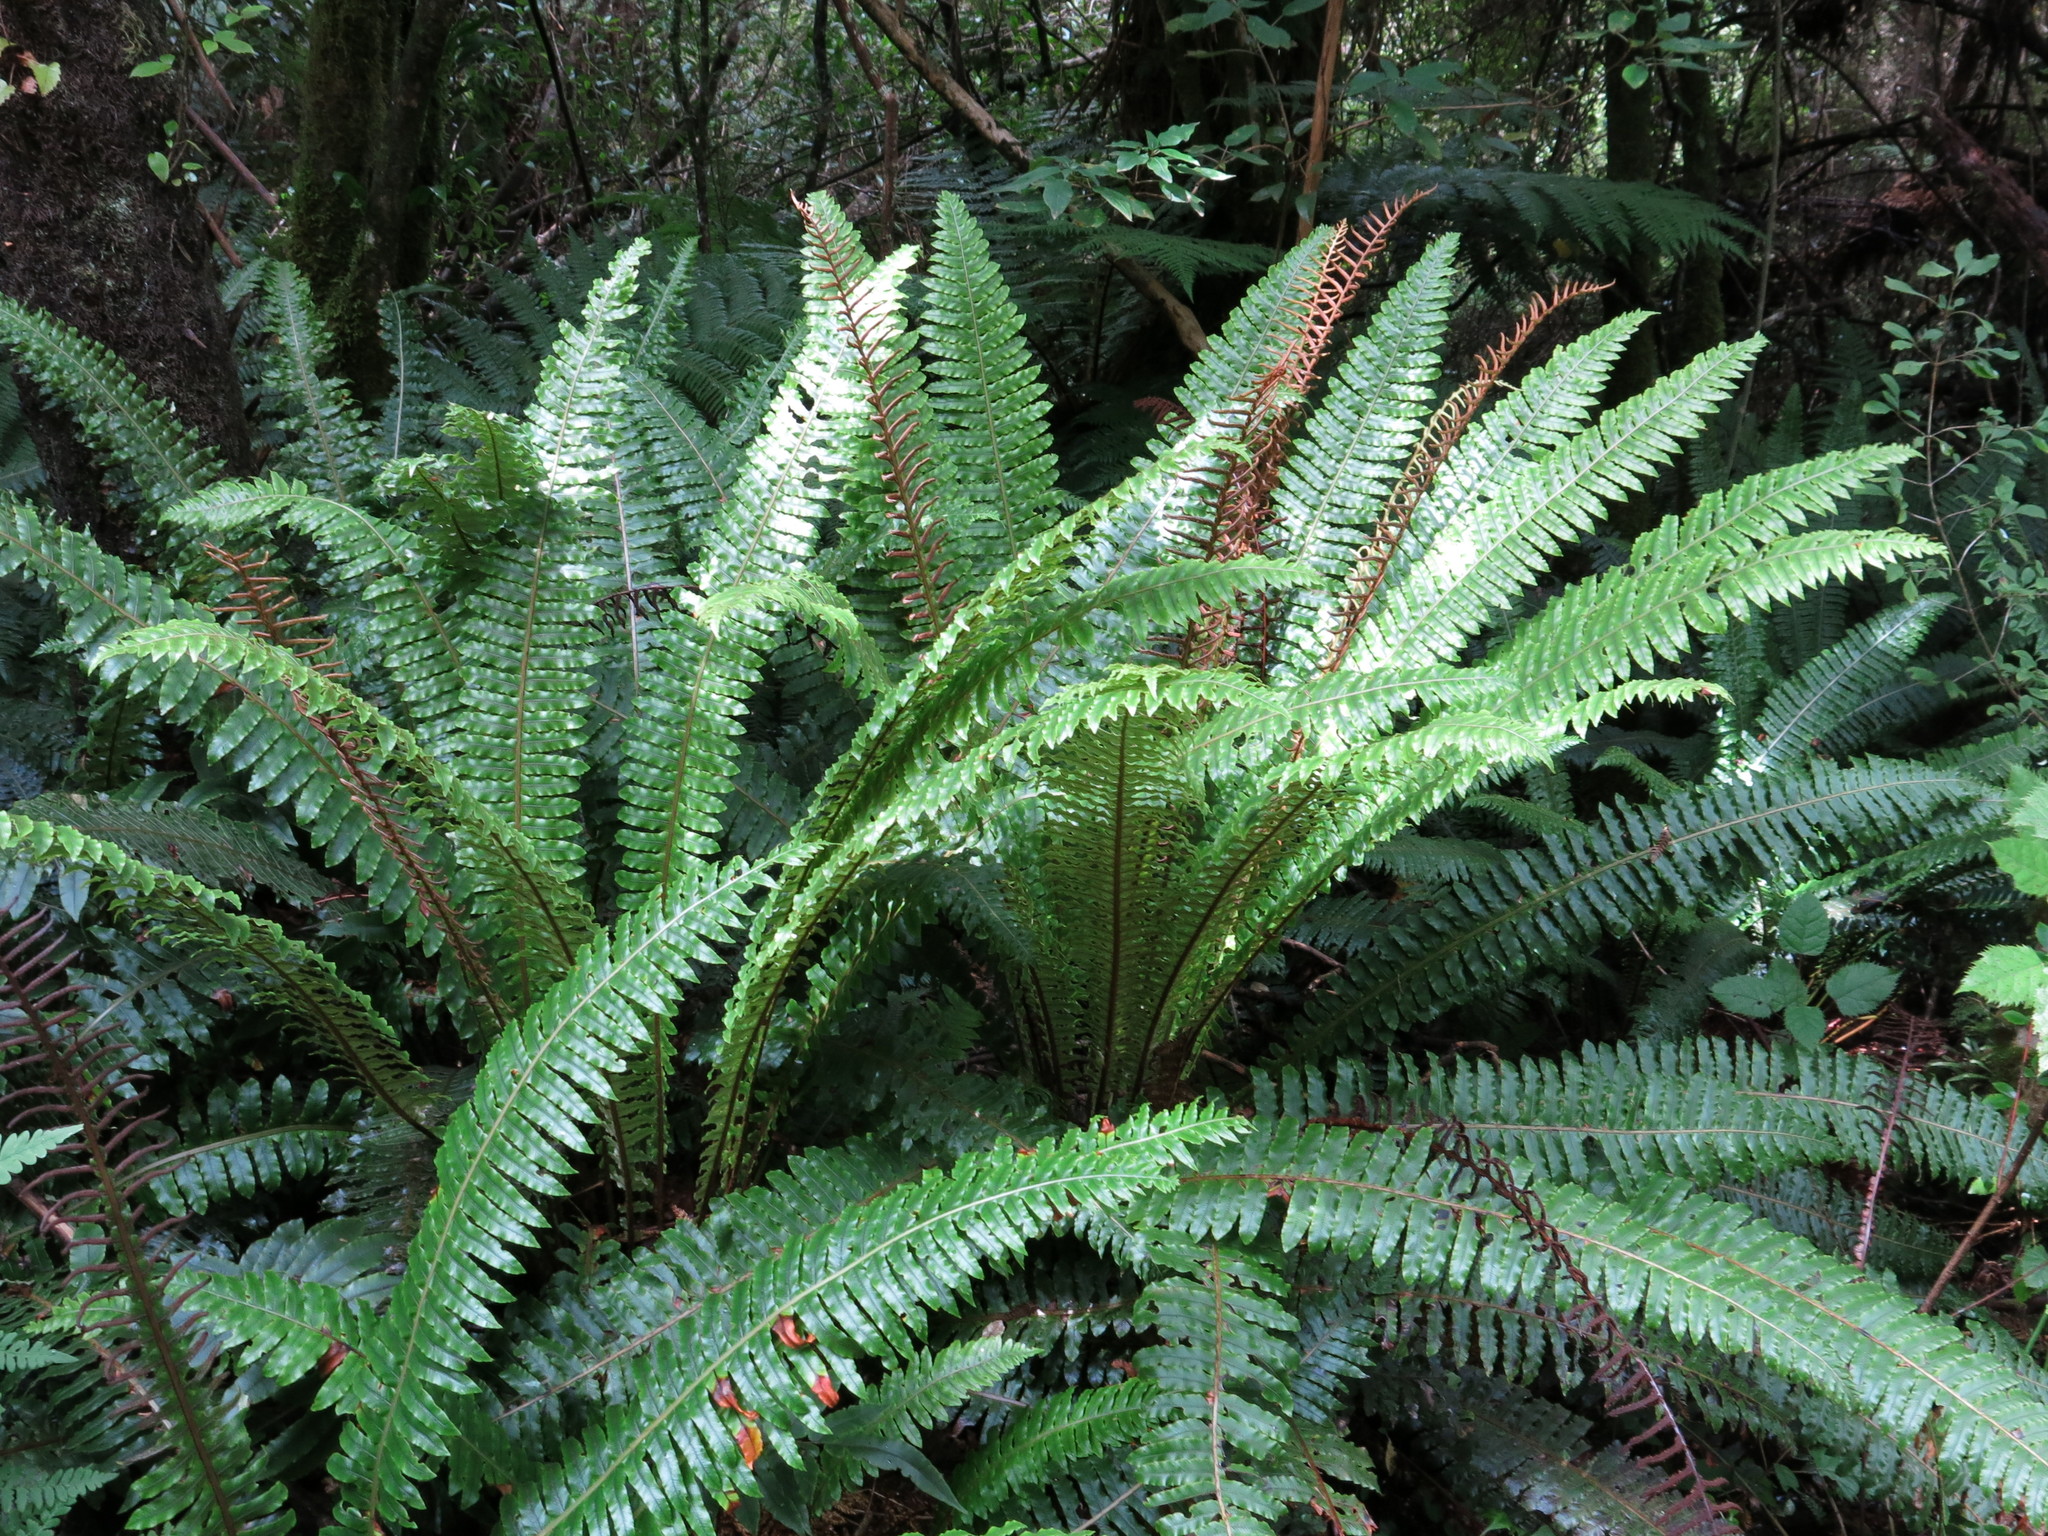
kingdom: Plantae
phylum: Tracheophyta
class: Polypodiopsida
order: Polypodiales
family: Blechnaceae
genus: Lomaria
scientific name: Lomaria discolor
